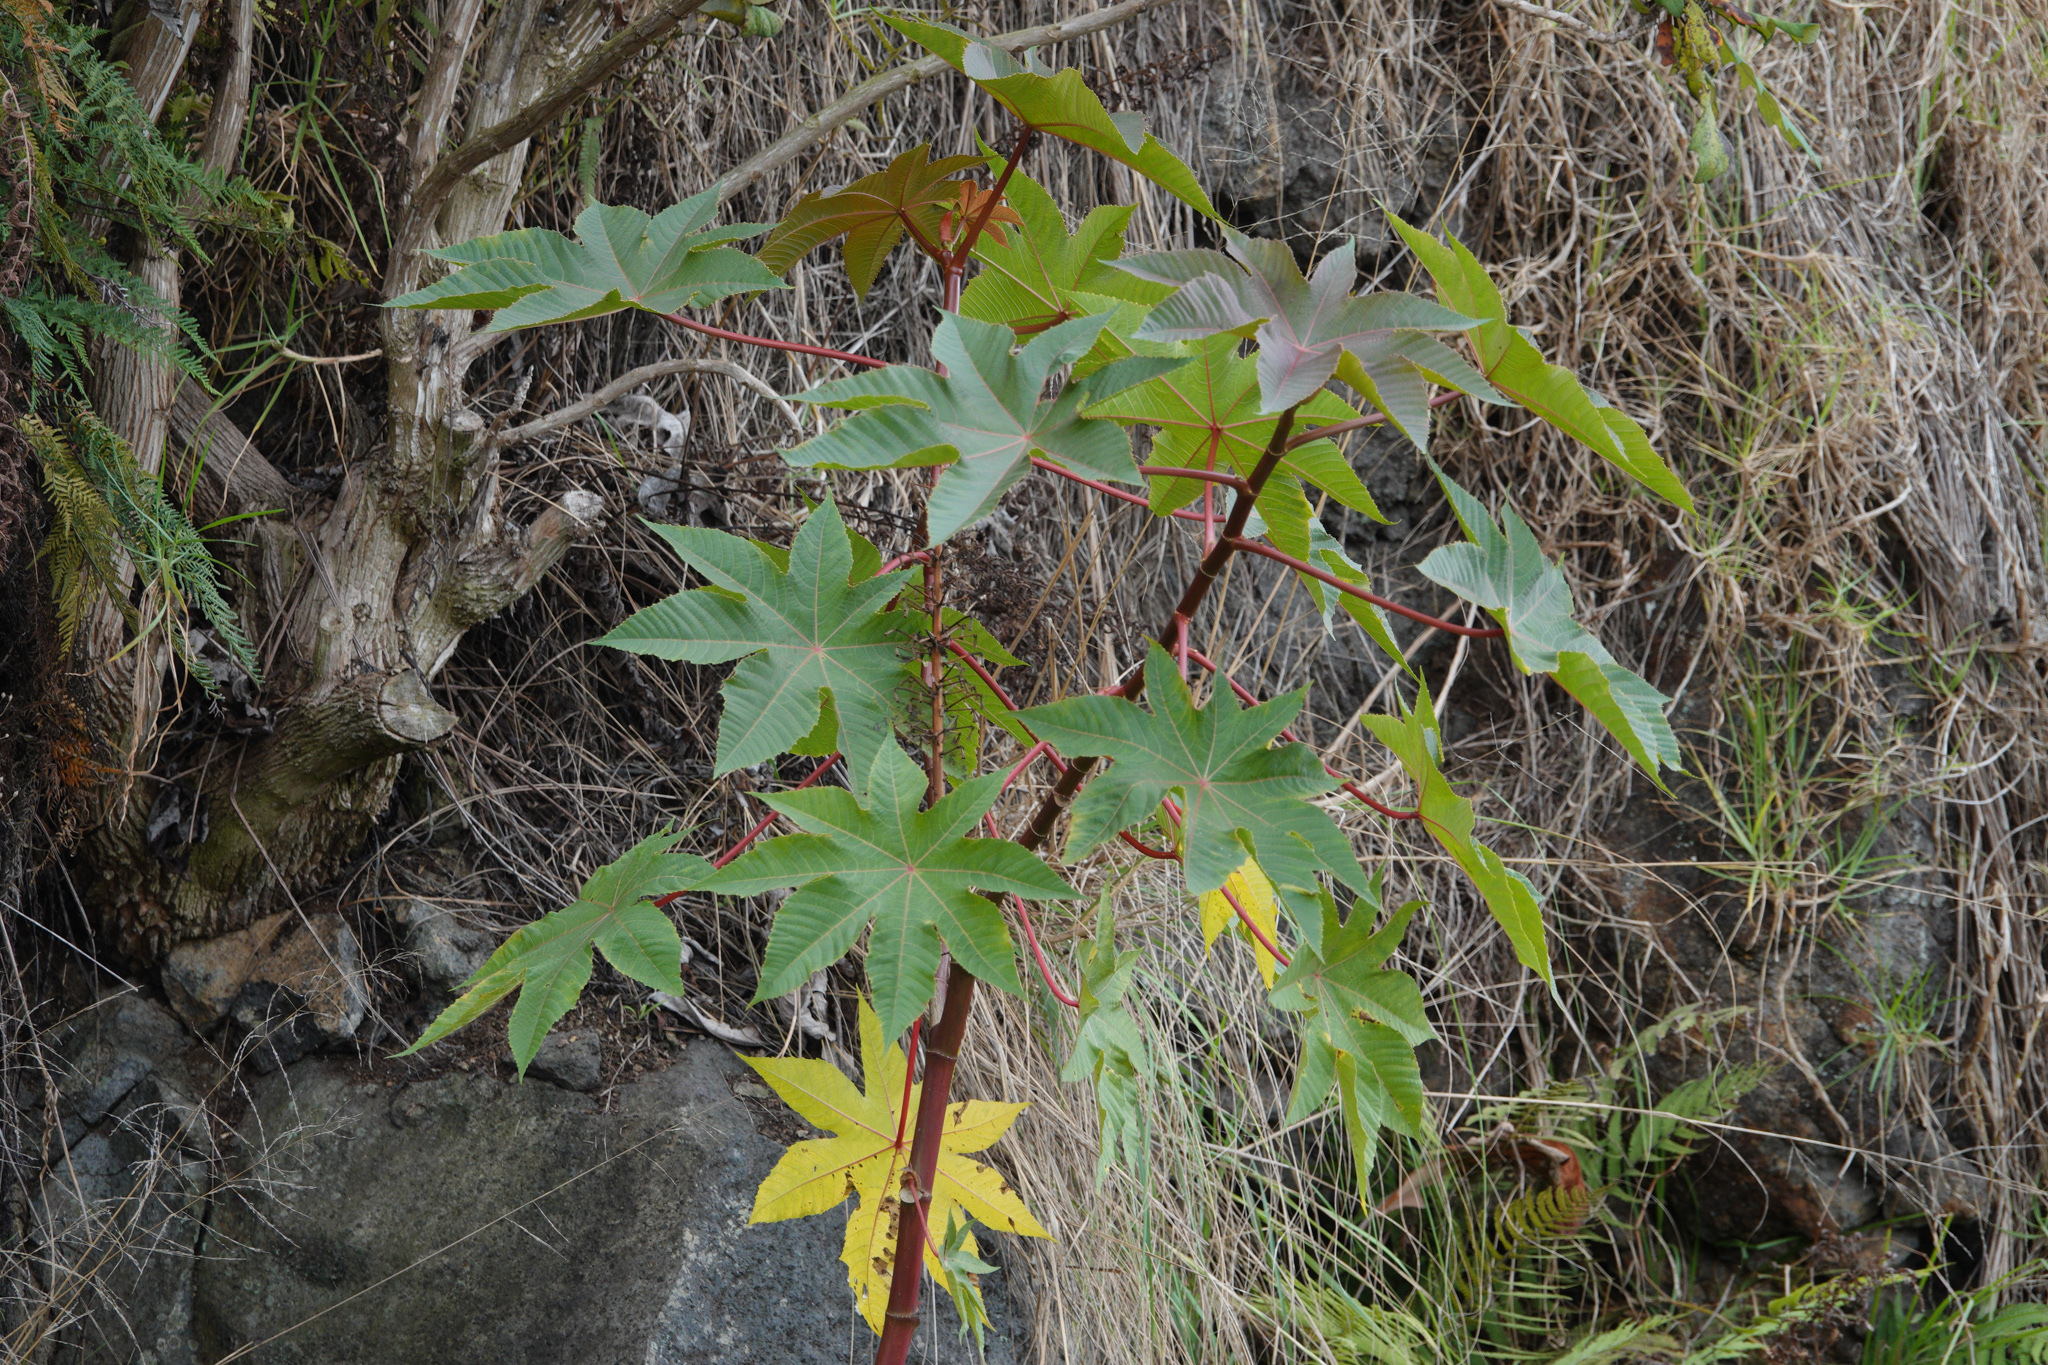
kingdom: Plantae
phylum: Tracheophyta
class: Magnoliopsida
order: Malpighiales
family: Euphorbiaceae
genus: Ricinus
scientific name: Ricinus communis
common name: Castor-oil-plant
